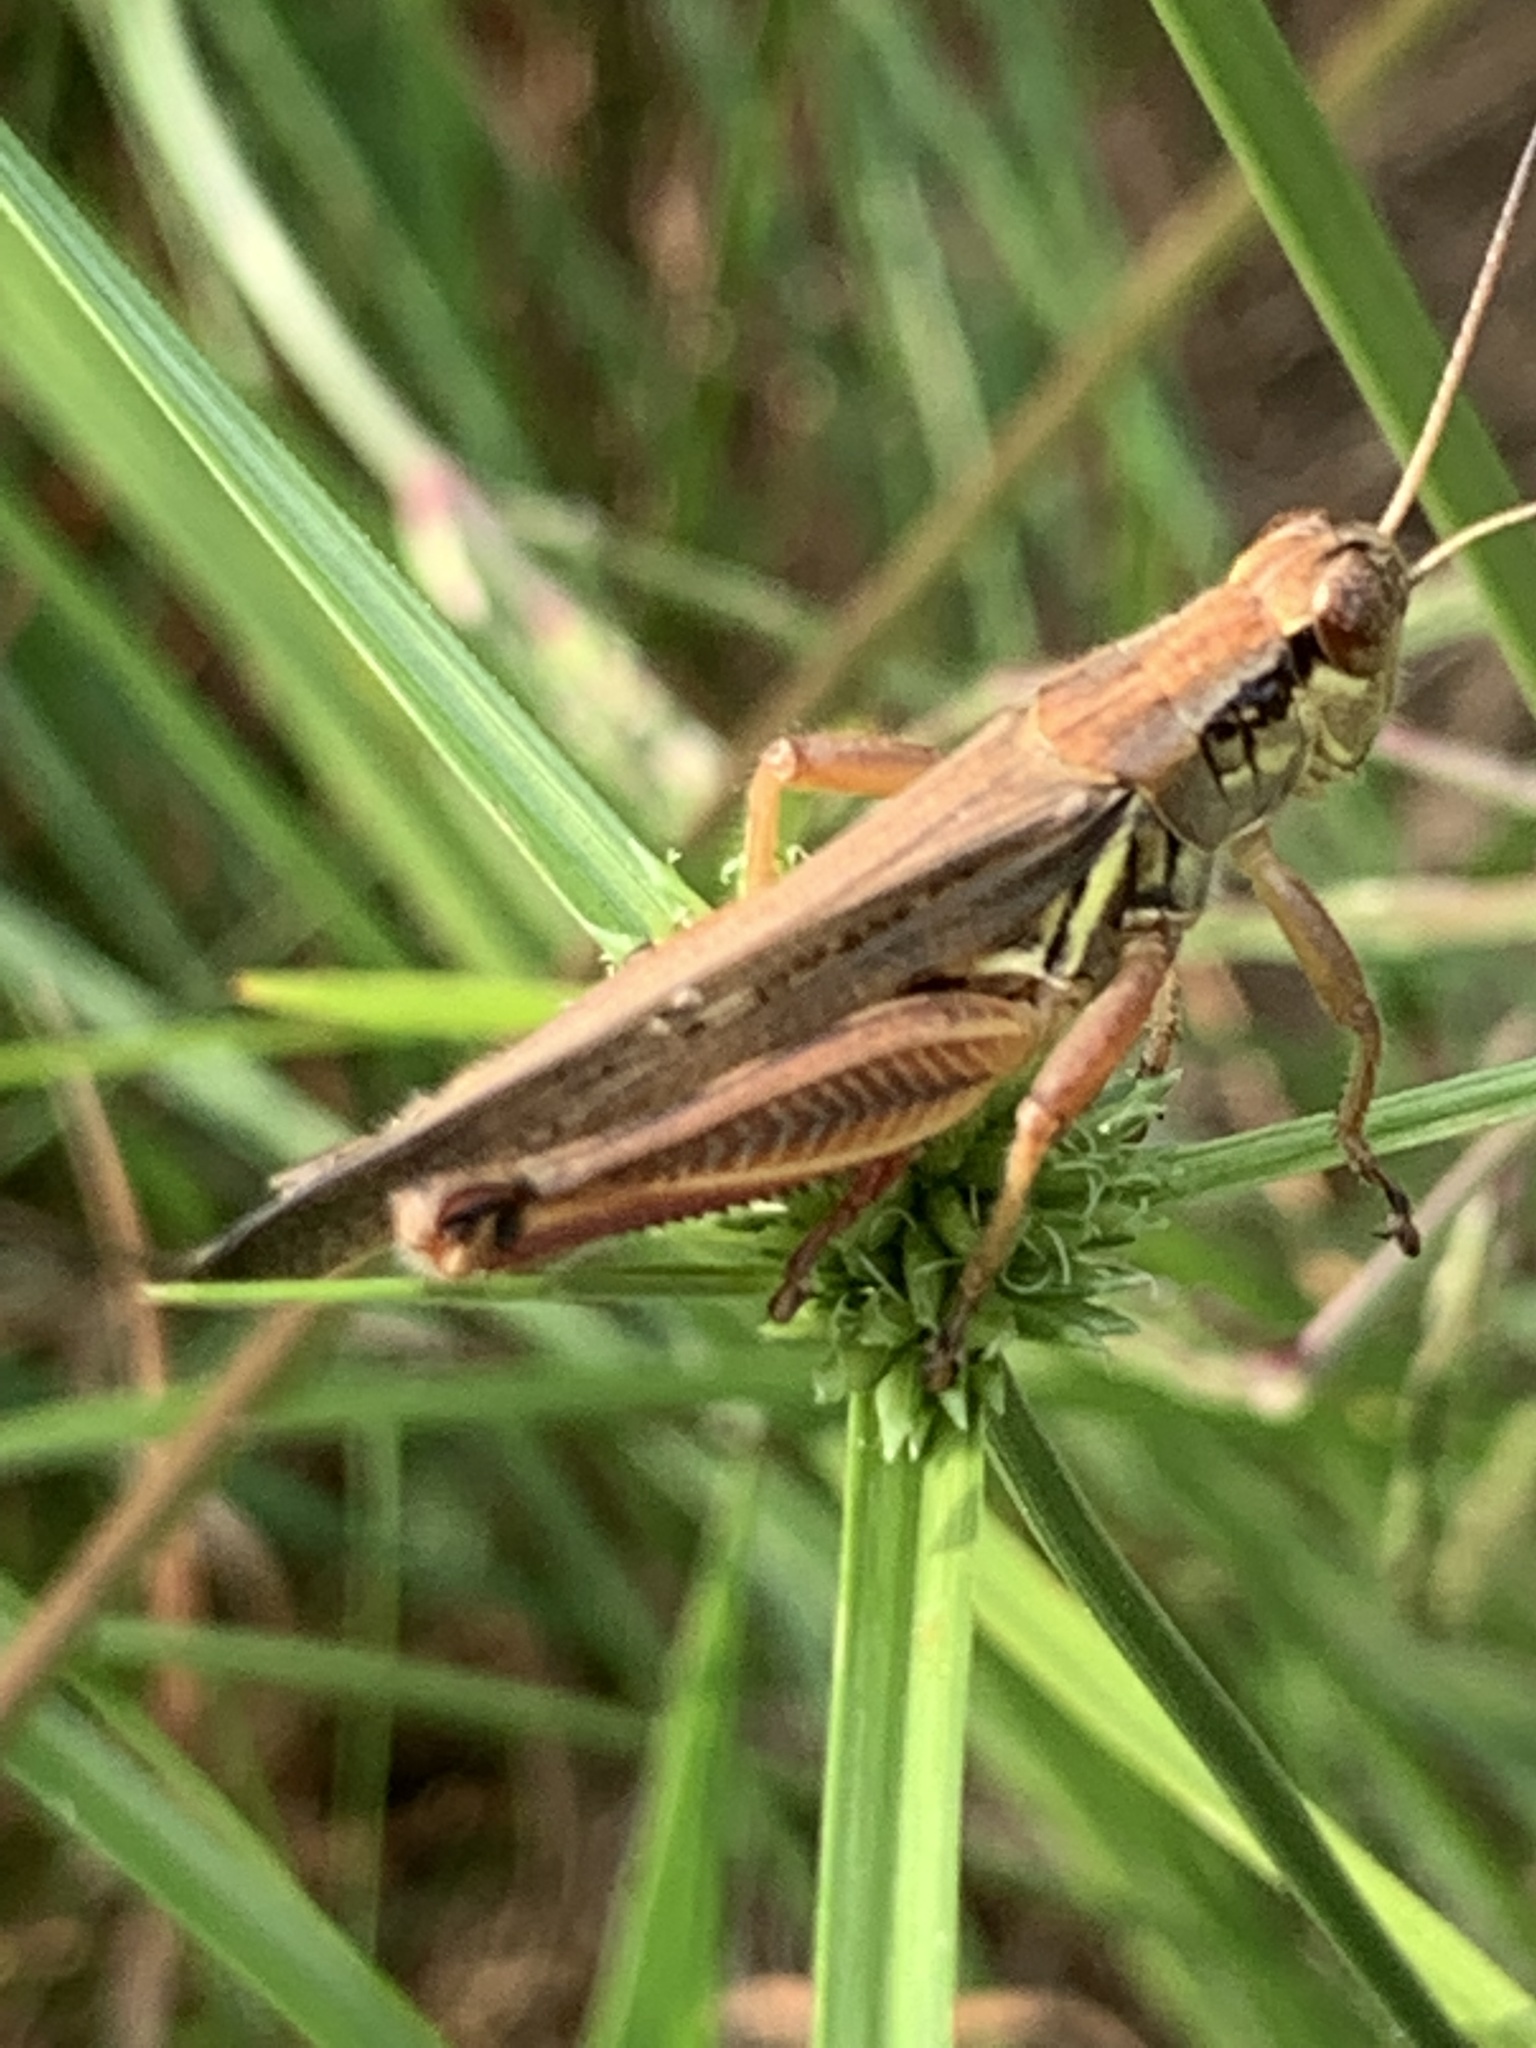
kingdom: Animalia
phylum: Arthropoda
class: Insecta
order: Orthoptera
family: Acrididae
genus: Melanoplus
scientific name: Melanoplus femurrubrum
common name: Red-legged grasshopper
